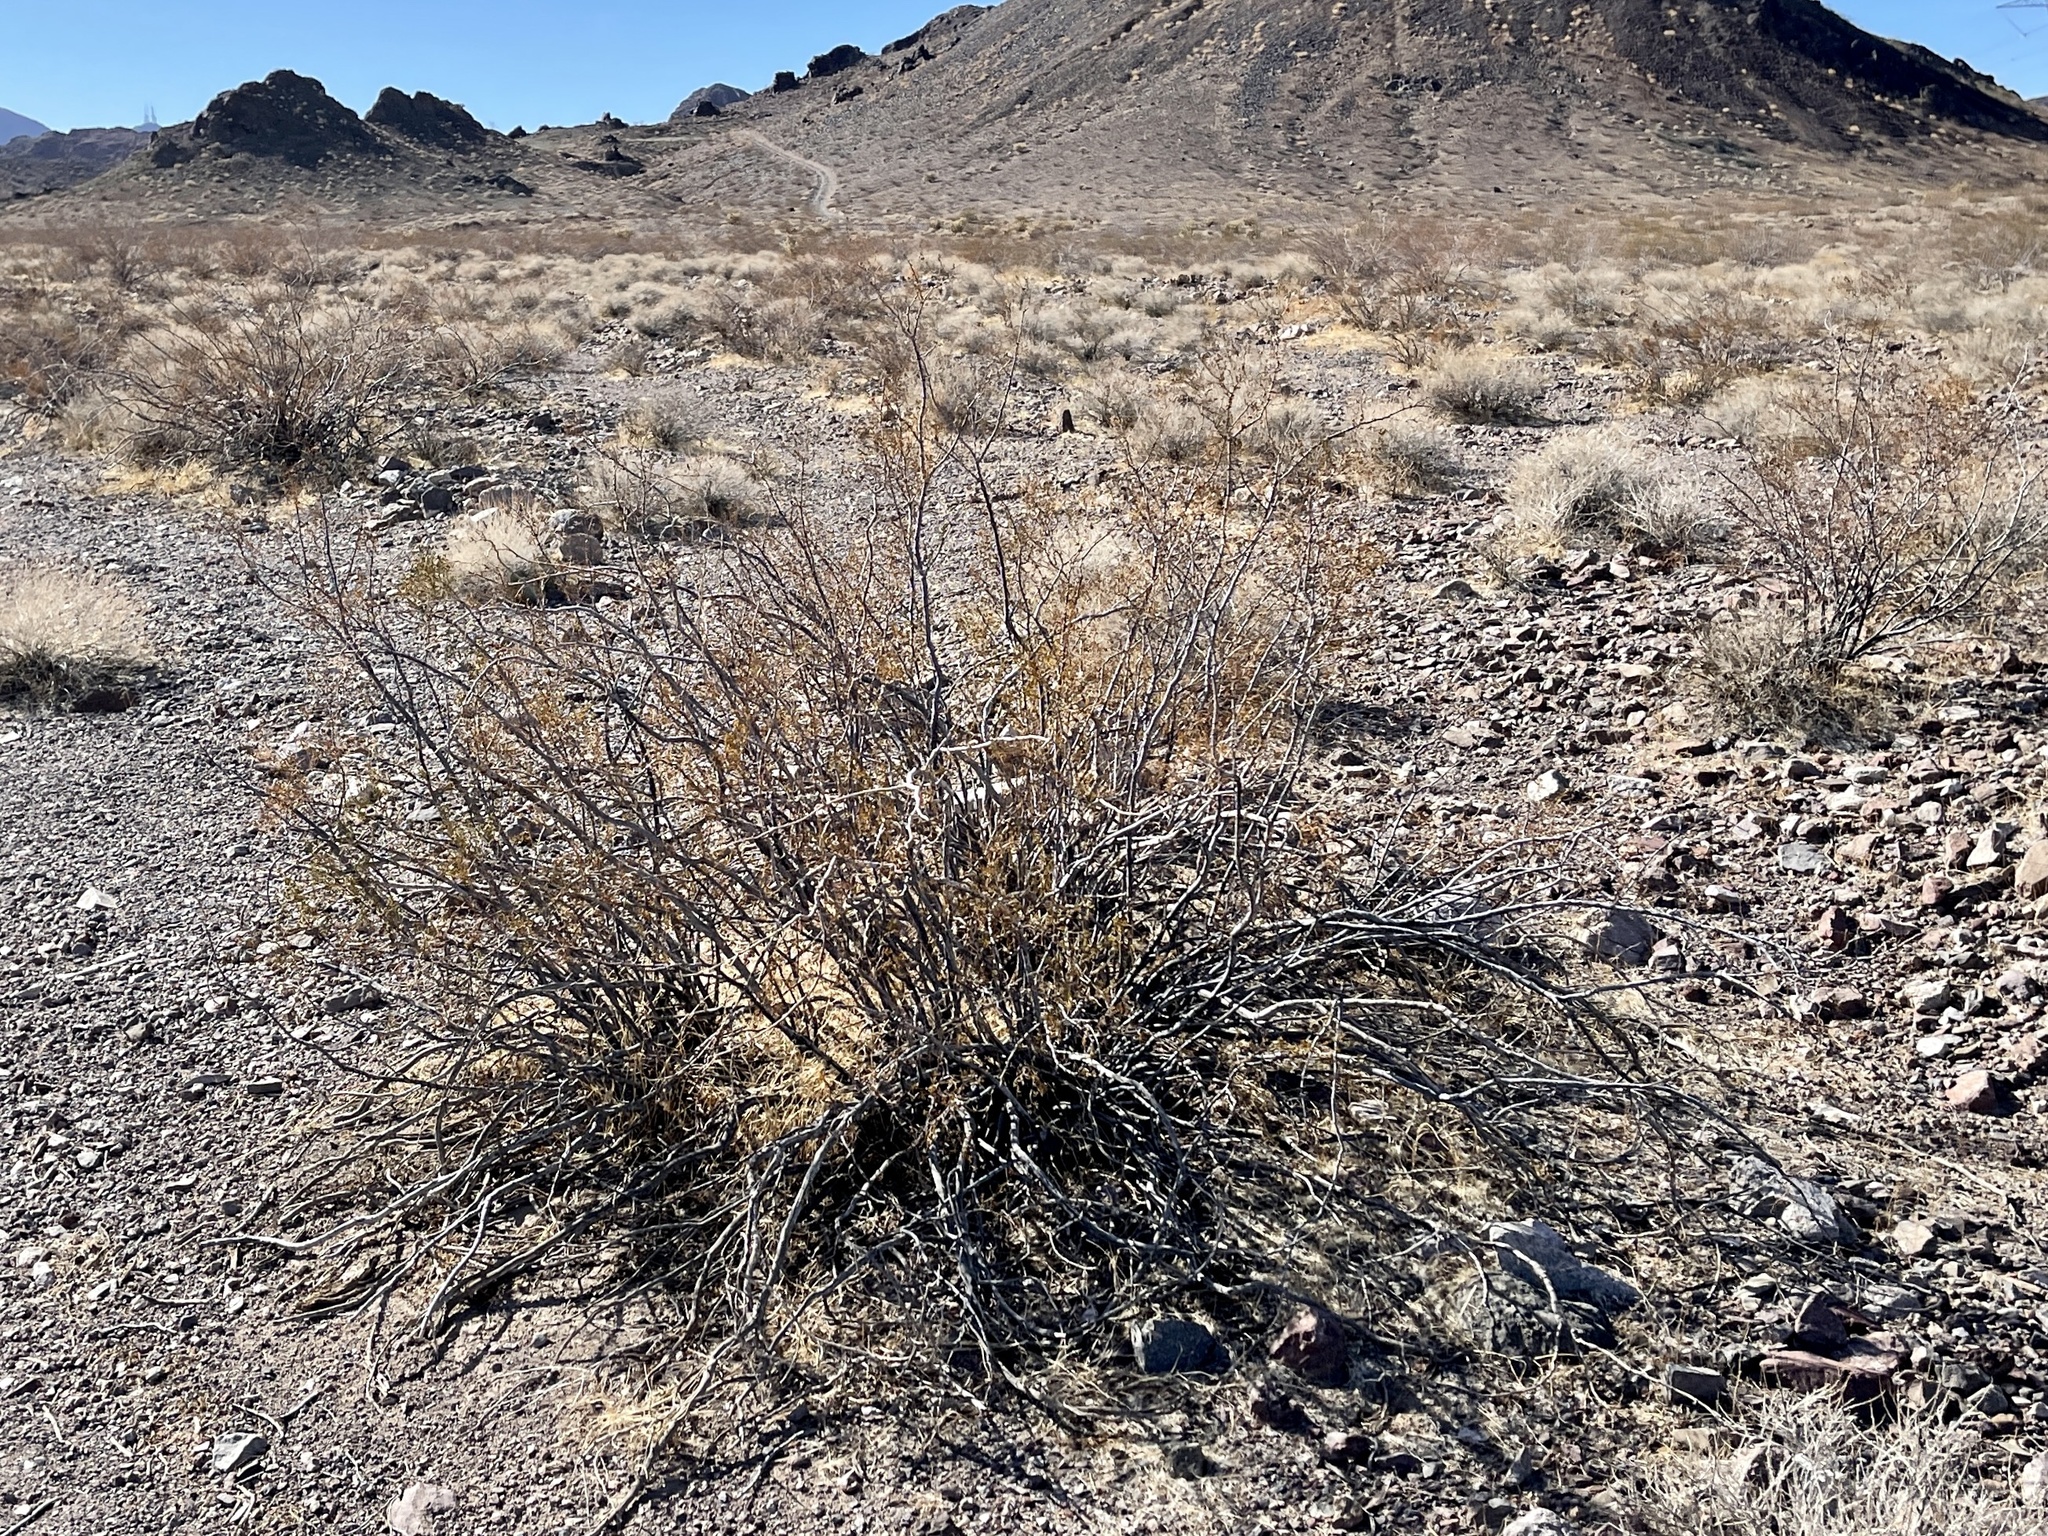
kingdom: Plantae
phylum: Tracheophyta
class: Magnoliopsida
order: Zygophyllales
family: Zygophyllaceae
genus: Larrea
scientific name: Larrea tridentata
